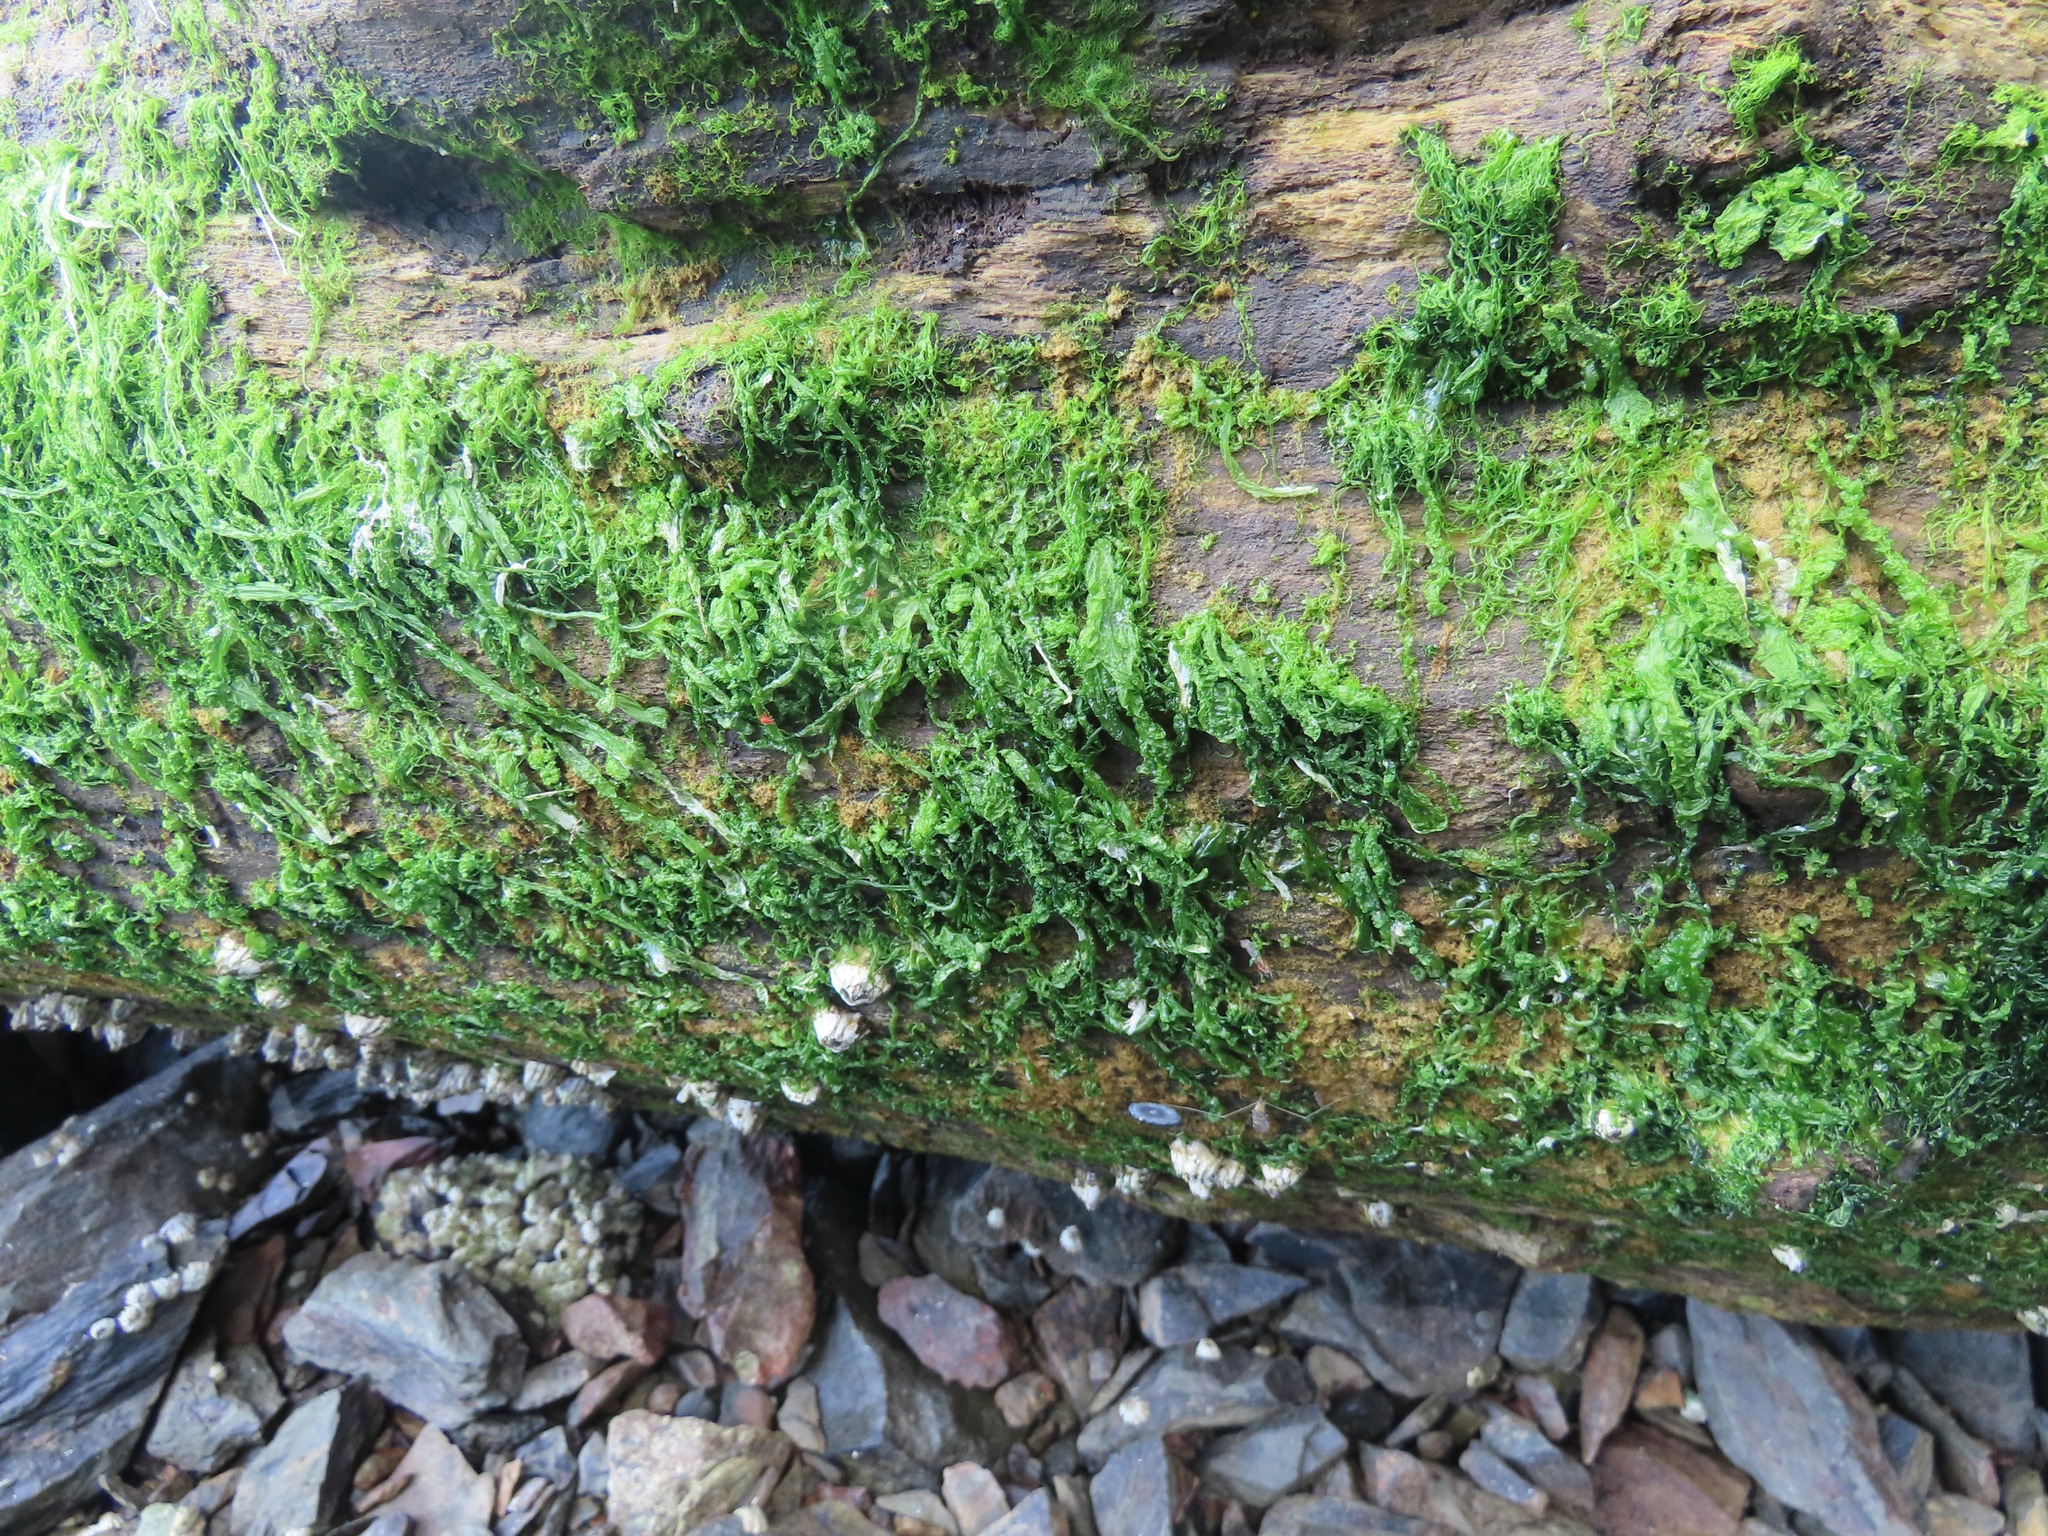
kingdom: Plantae
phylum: Chlorophyta
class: Ulvophyceae
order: Ulvales
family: Ulvaceae
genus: Ulva
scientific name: Ulva intestinalis
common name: Gut weed
